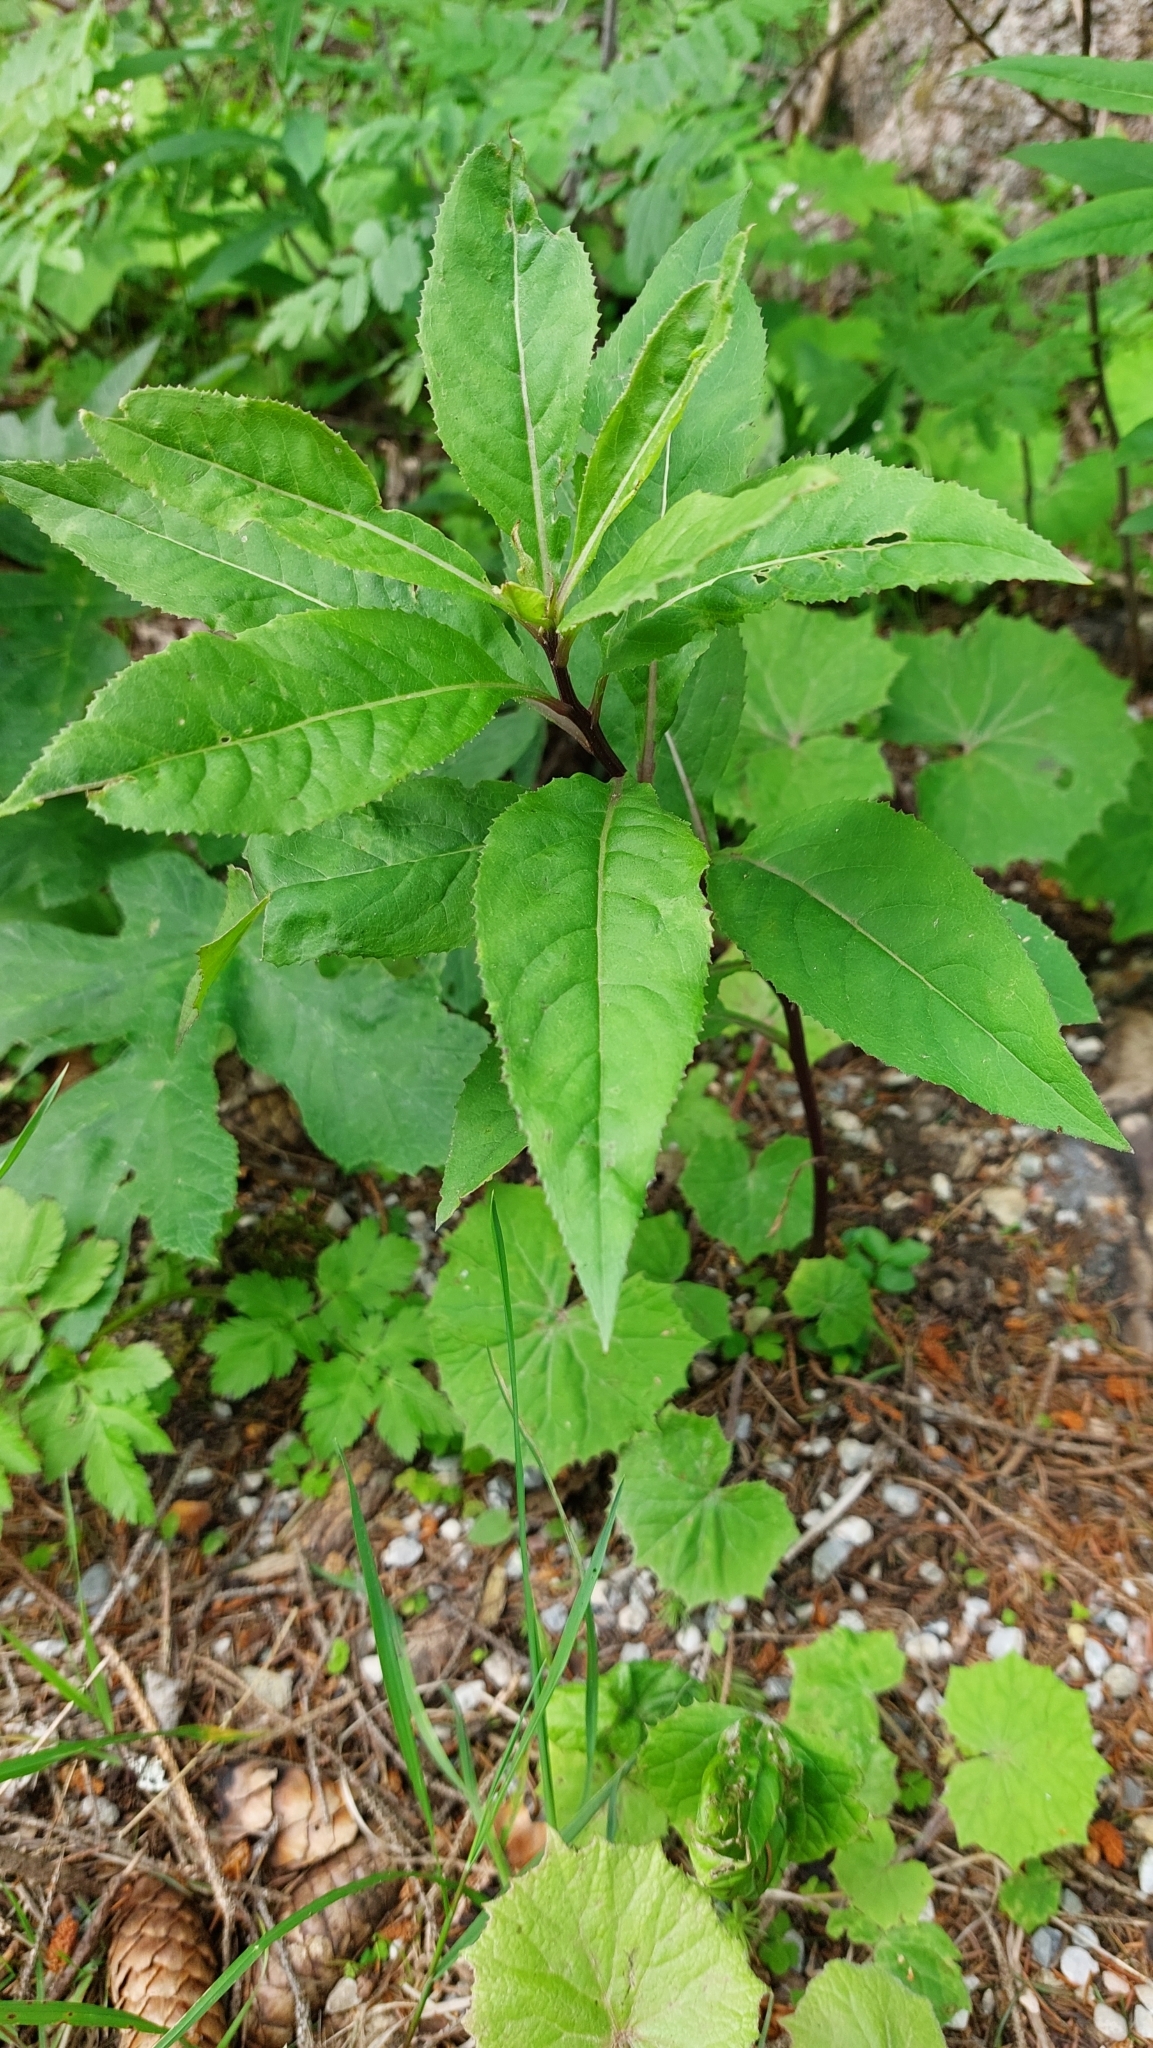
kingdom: Plantae
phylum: Tracheophyta
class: Magnoliopsida
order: Asterales
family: Asteraceae
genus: Senecio
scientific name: Senecio ovatus
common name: Wood ragwort
